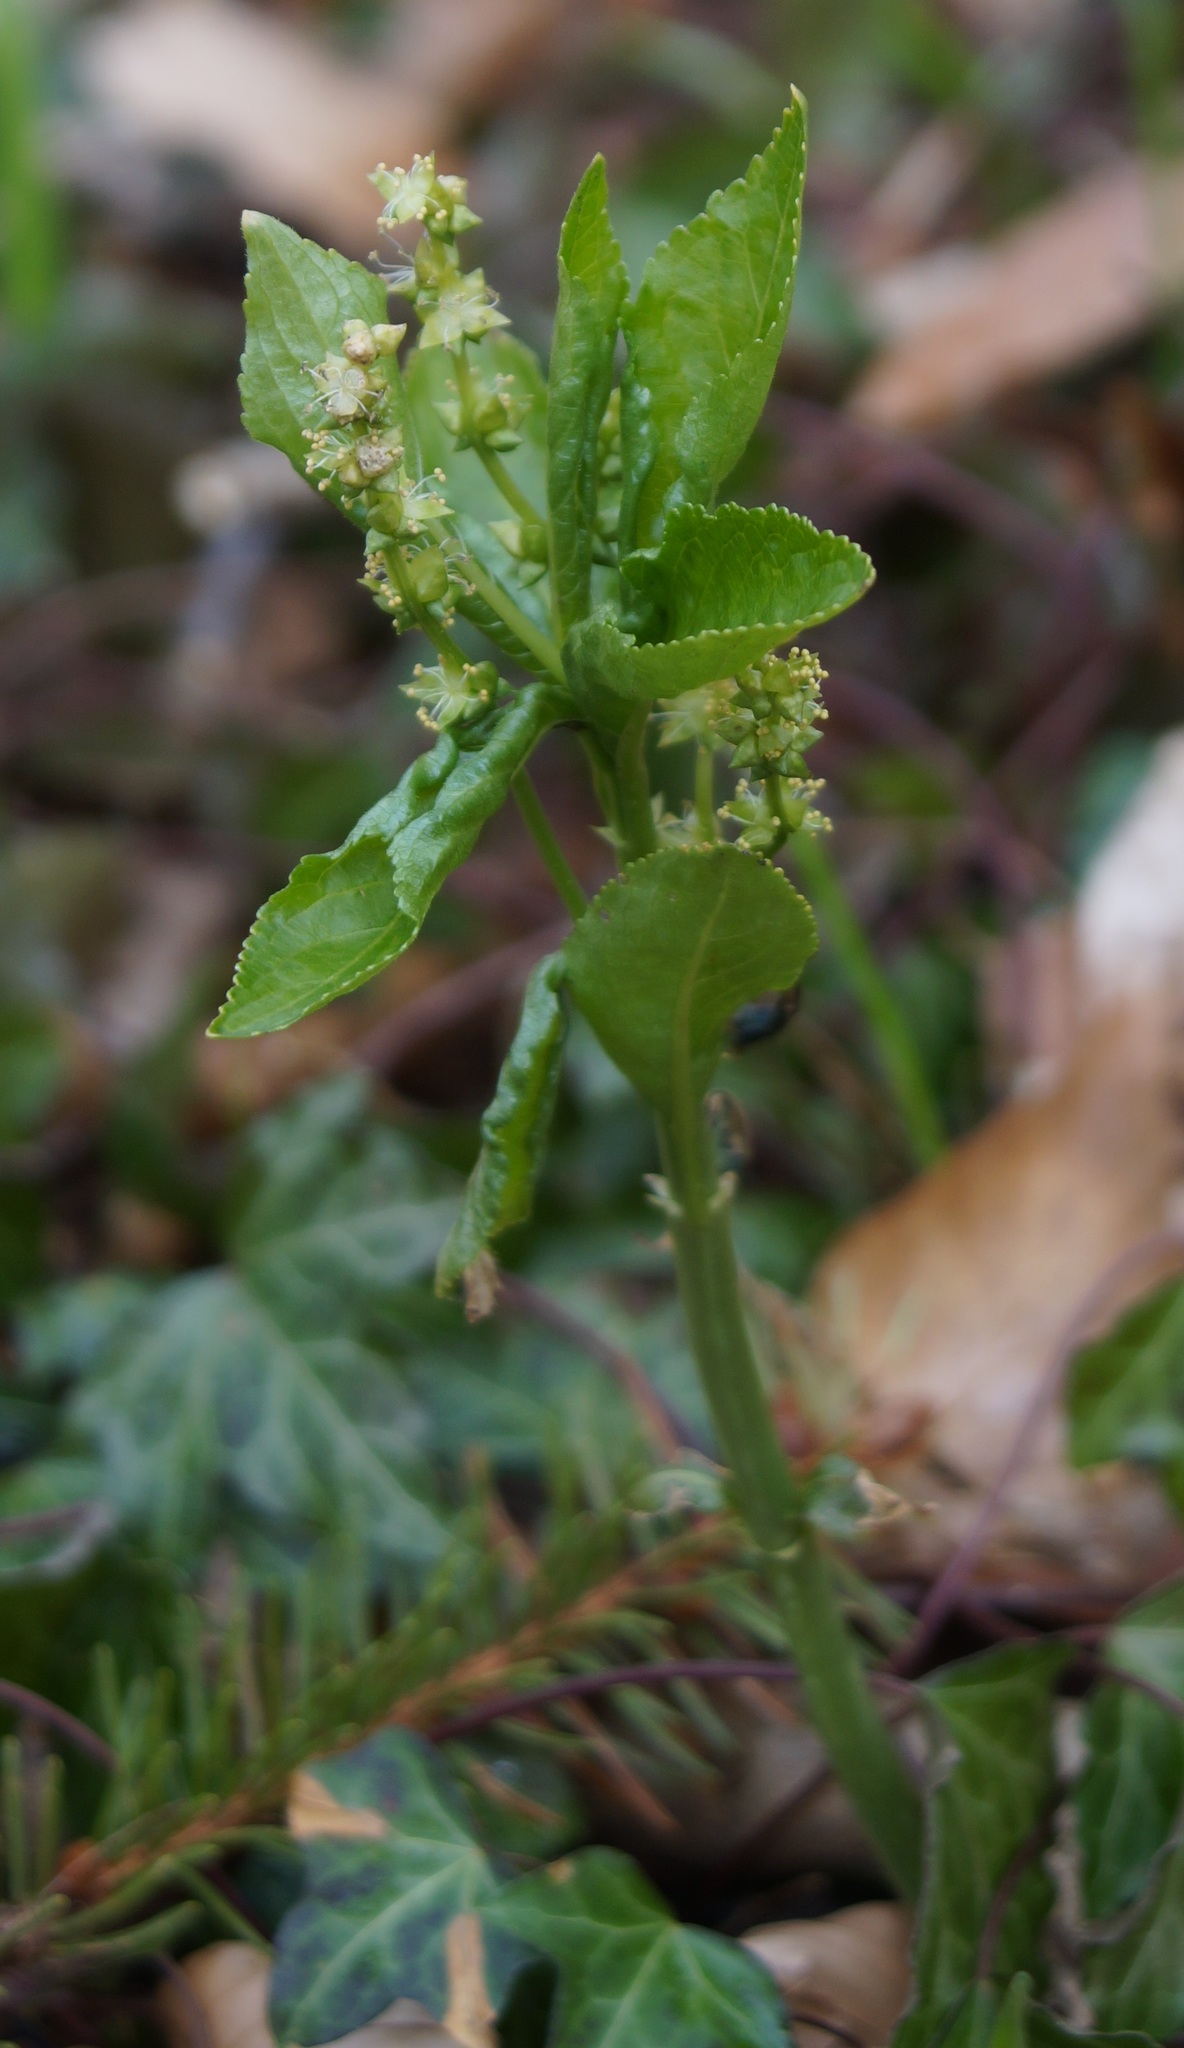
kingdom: Plantae
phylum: Tracheophyta
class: Magnoliopsida
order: Malpighiales
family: Euphorbiaceae
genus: Mercurialis
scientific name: Mercurialis perennis
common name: Dog mercury
